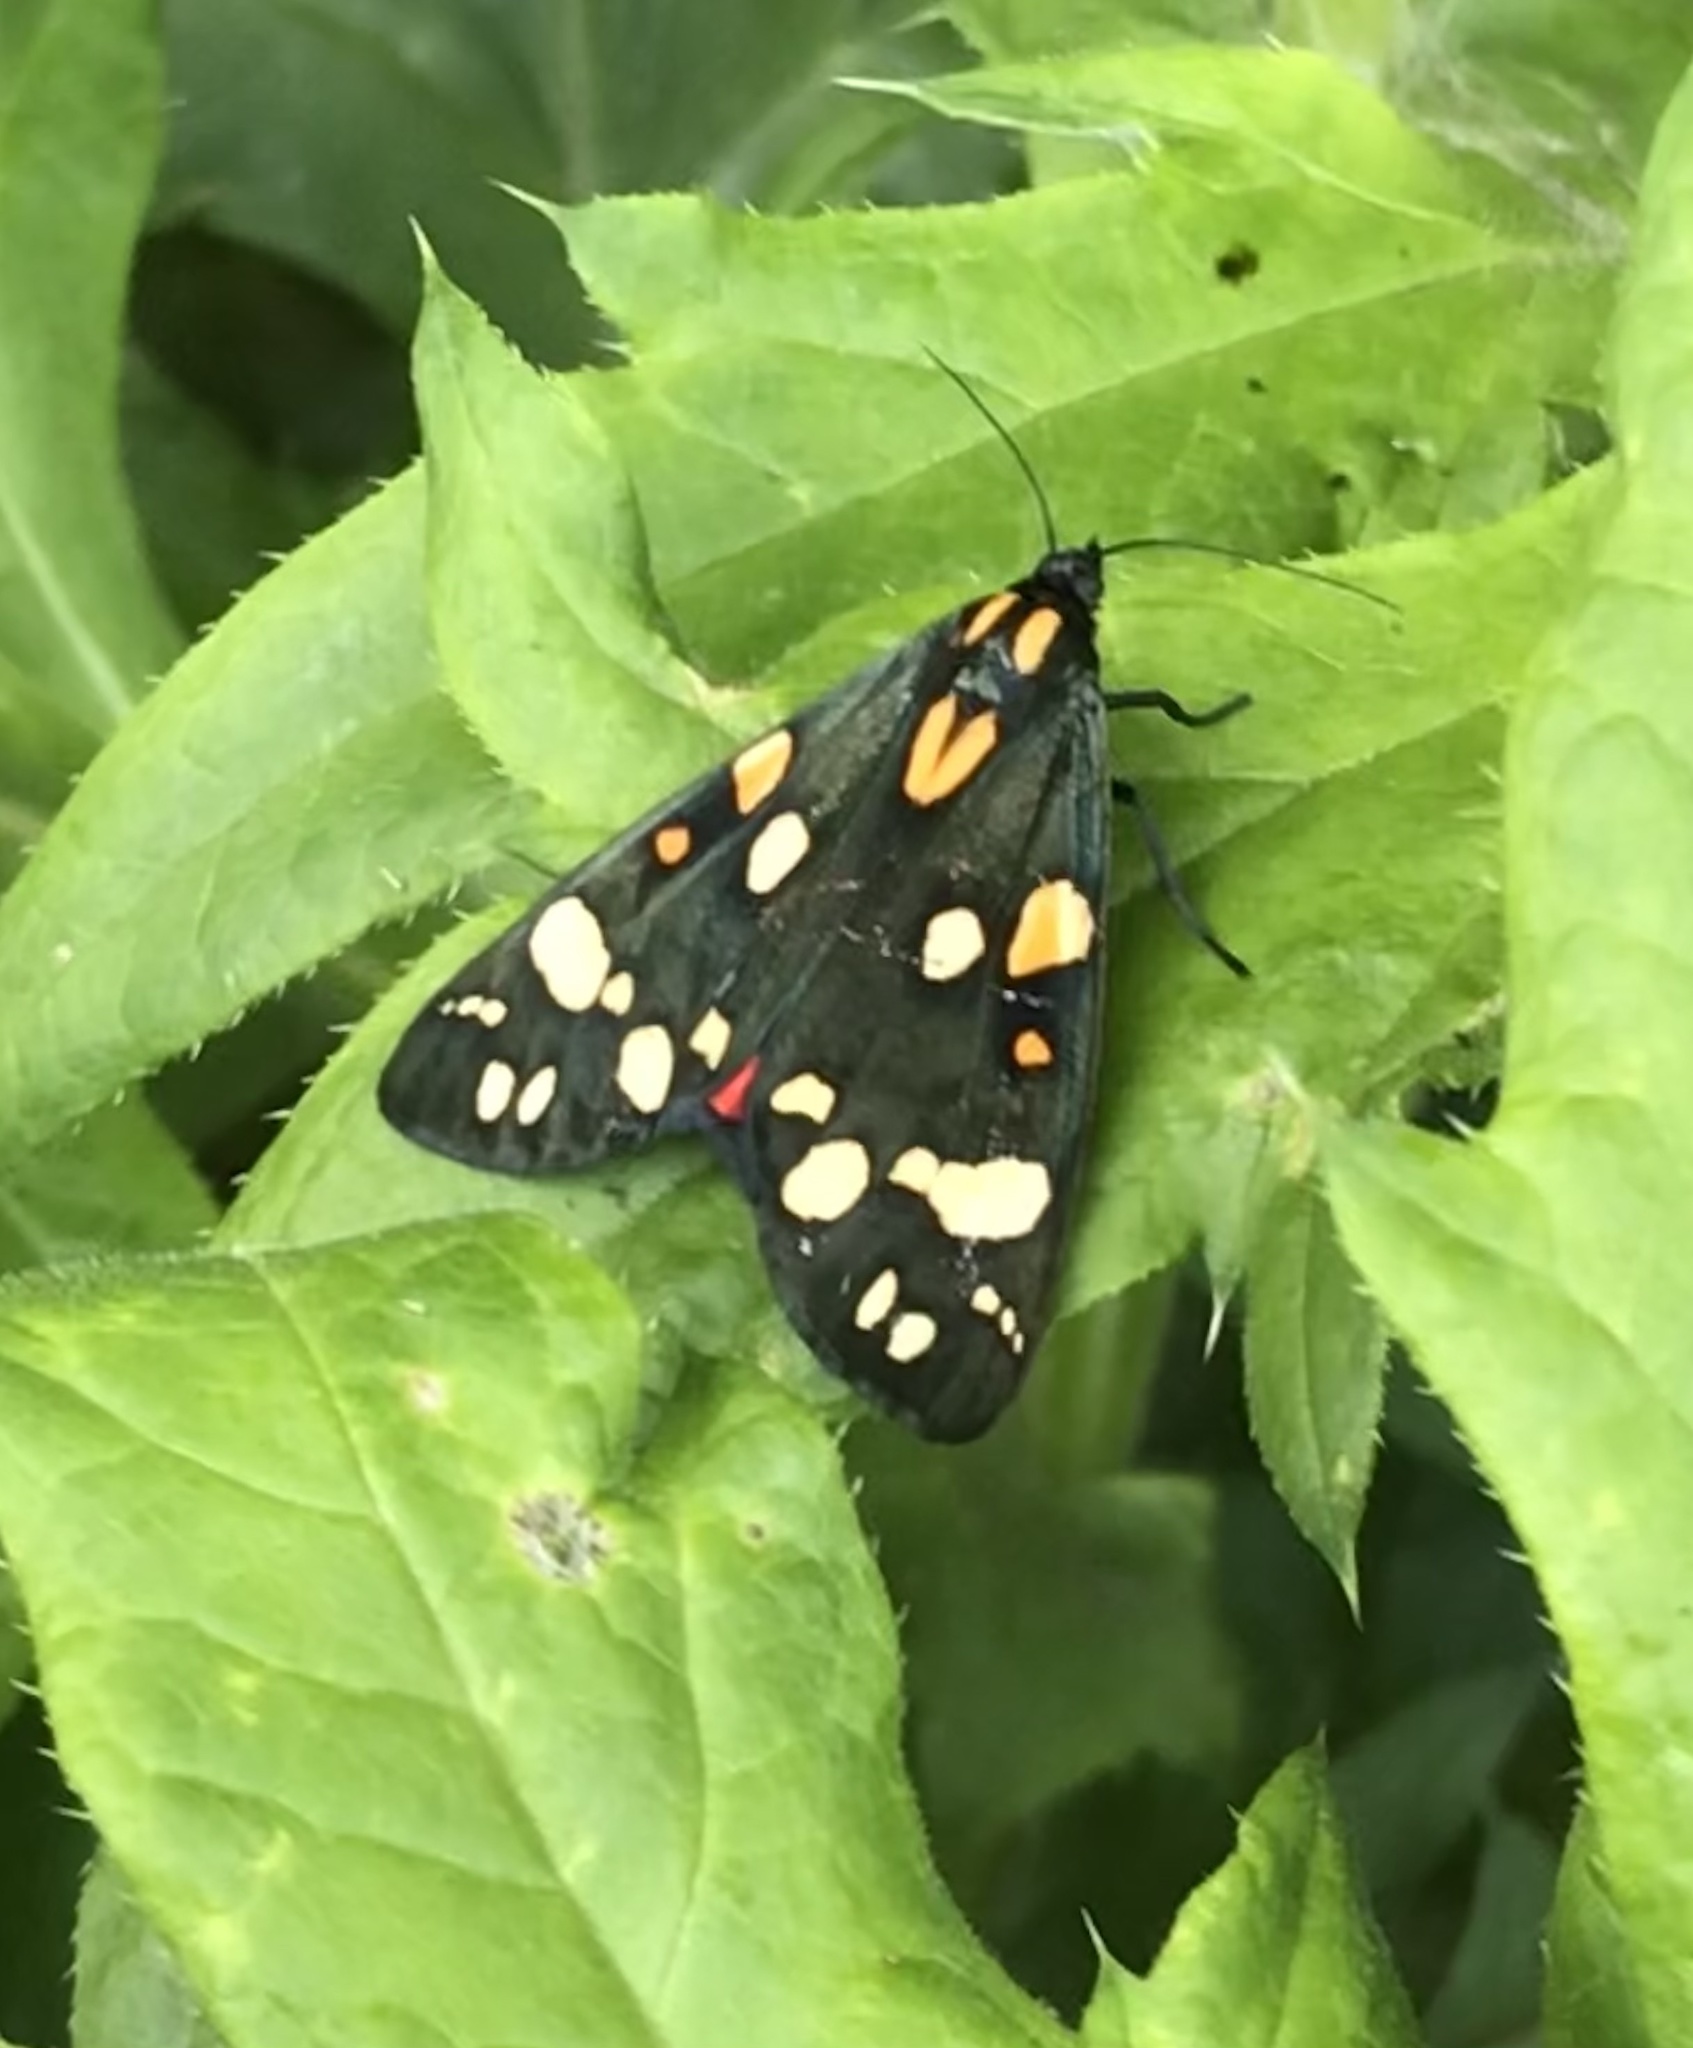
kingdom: Animalia
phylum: Arthropoda
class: Insecta
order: Lepidoptera
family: Erebidae
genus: Callimorpha
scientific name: Callimorpha dominula
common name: Scarlet tiger
